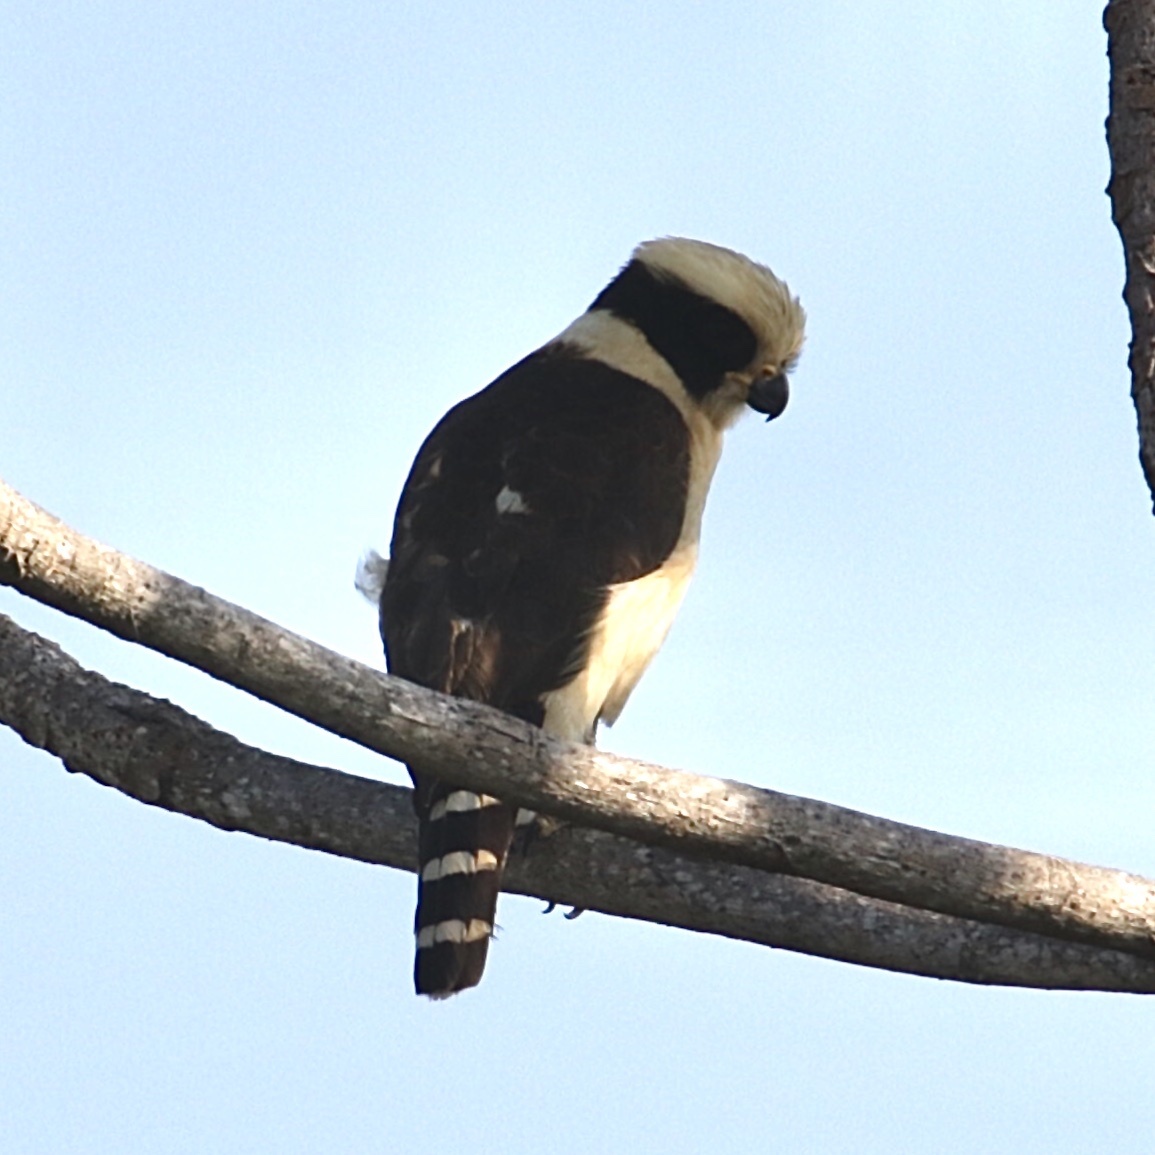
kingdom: Animalia
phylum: Chordata
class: Aves
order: Falconiformes
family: Falconidae
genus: Herpetotheres
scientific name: Herpetotheres cachinnans
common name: Laughing falcon
